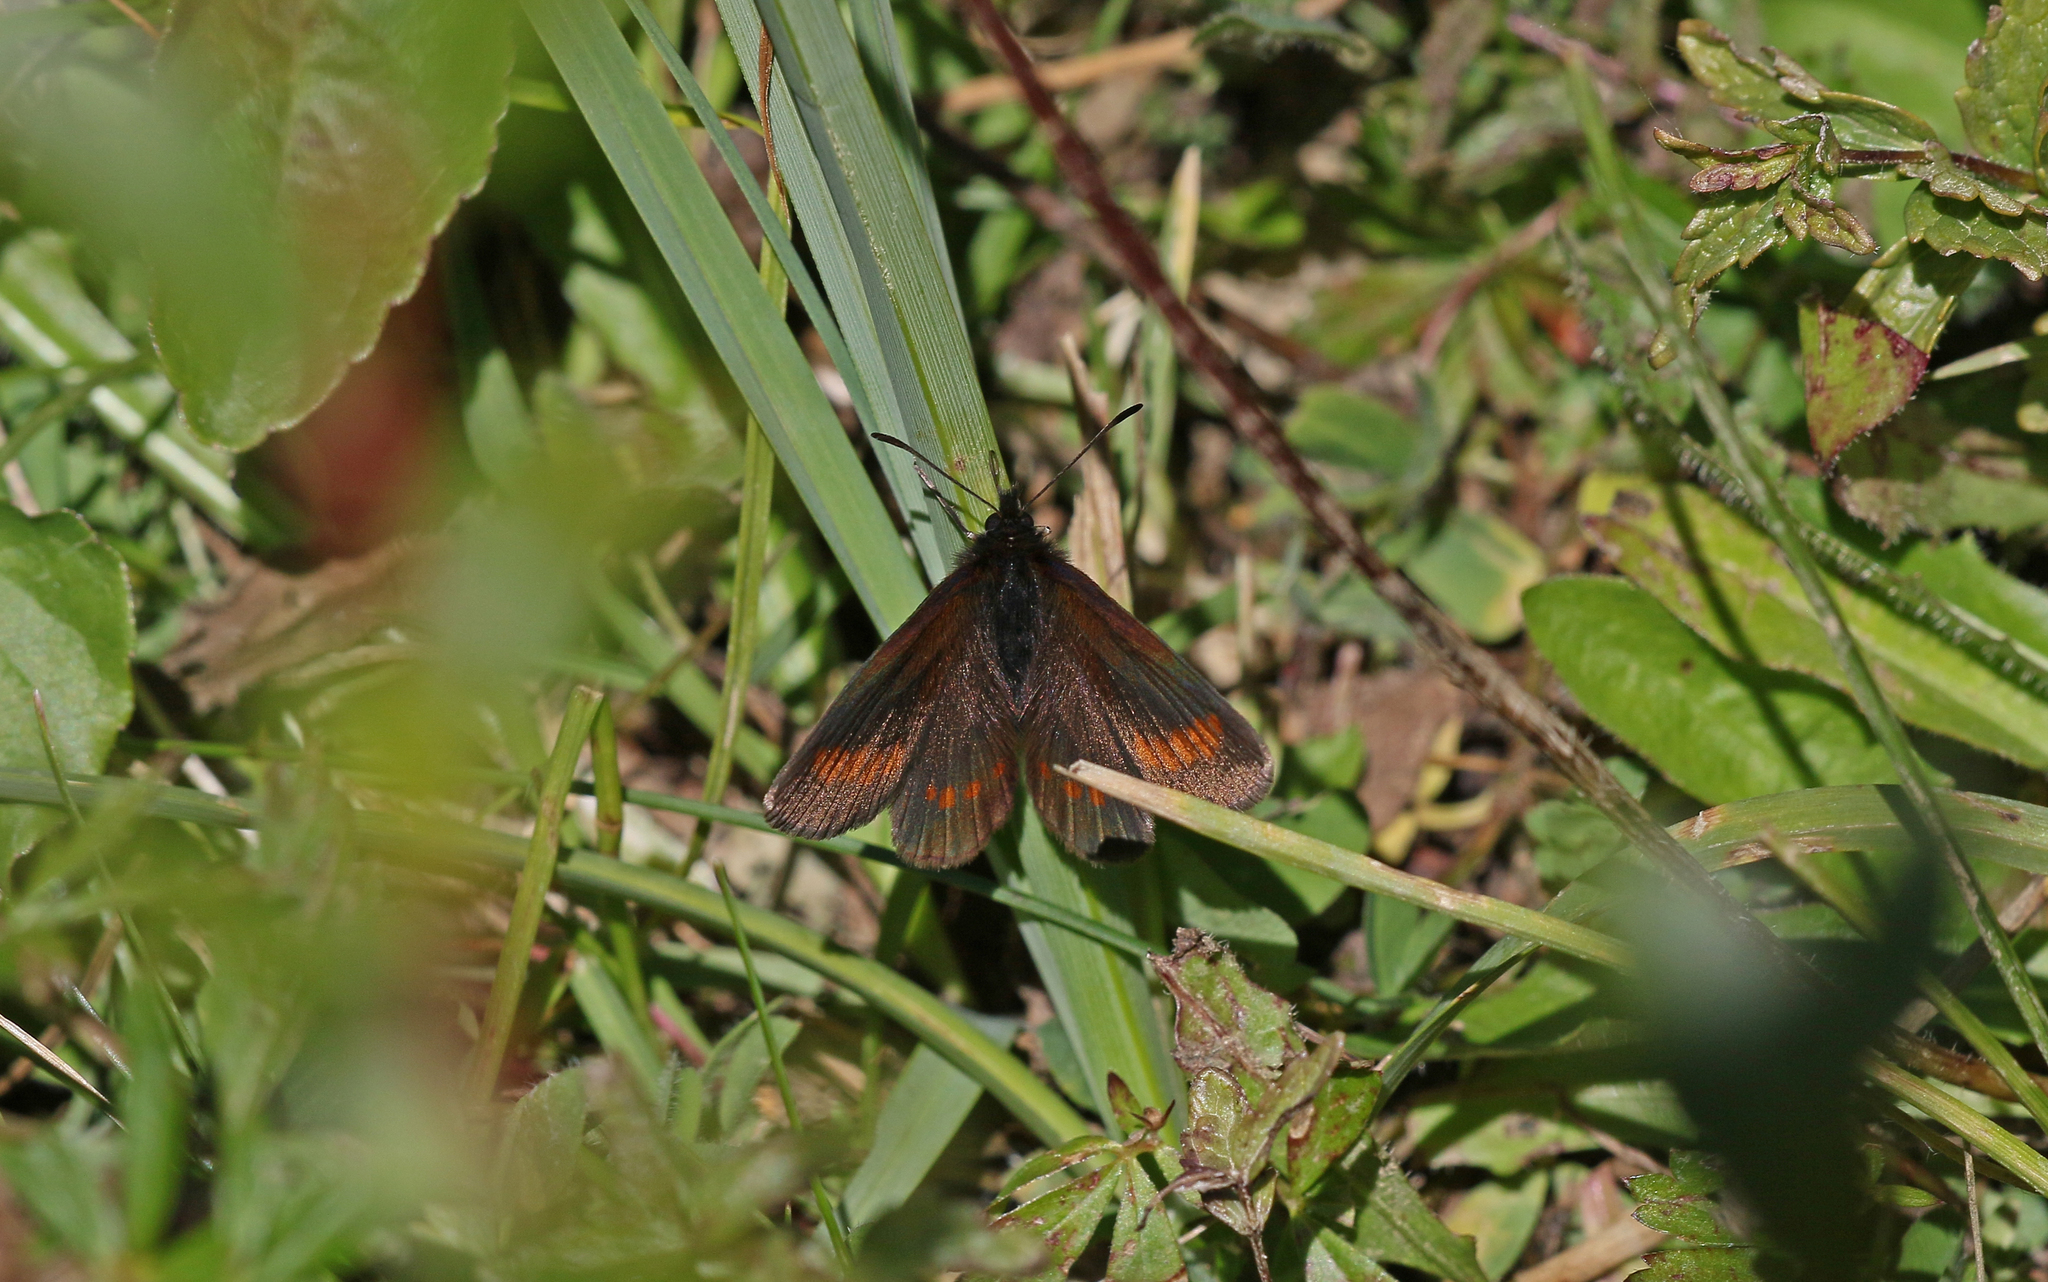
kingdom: Animalia
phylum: Arthropoda
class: Insecta
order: Lepidoptera
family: Nymphalidae
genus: Erebia
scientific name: Erebia
